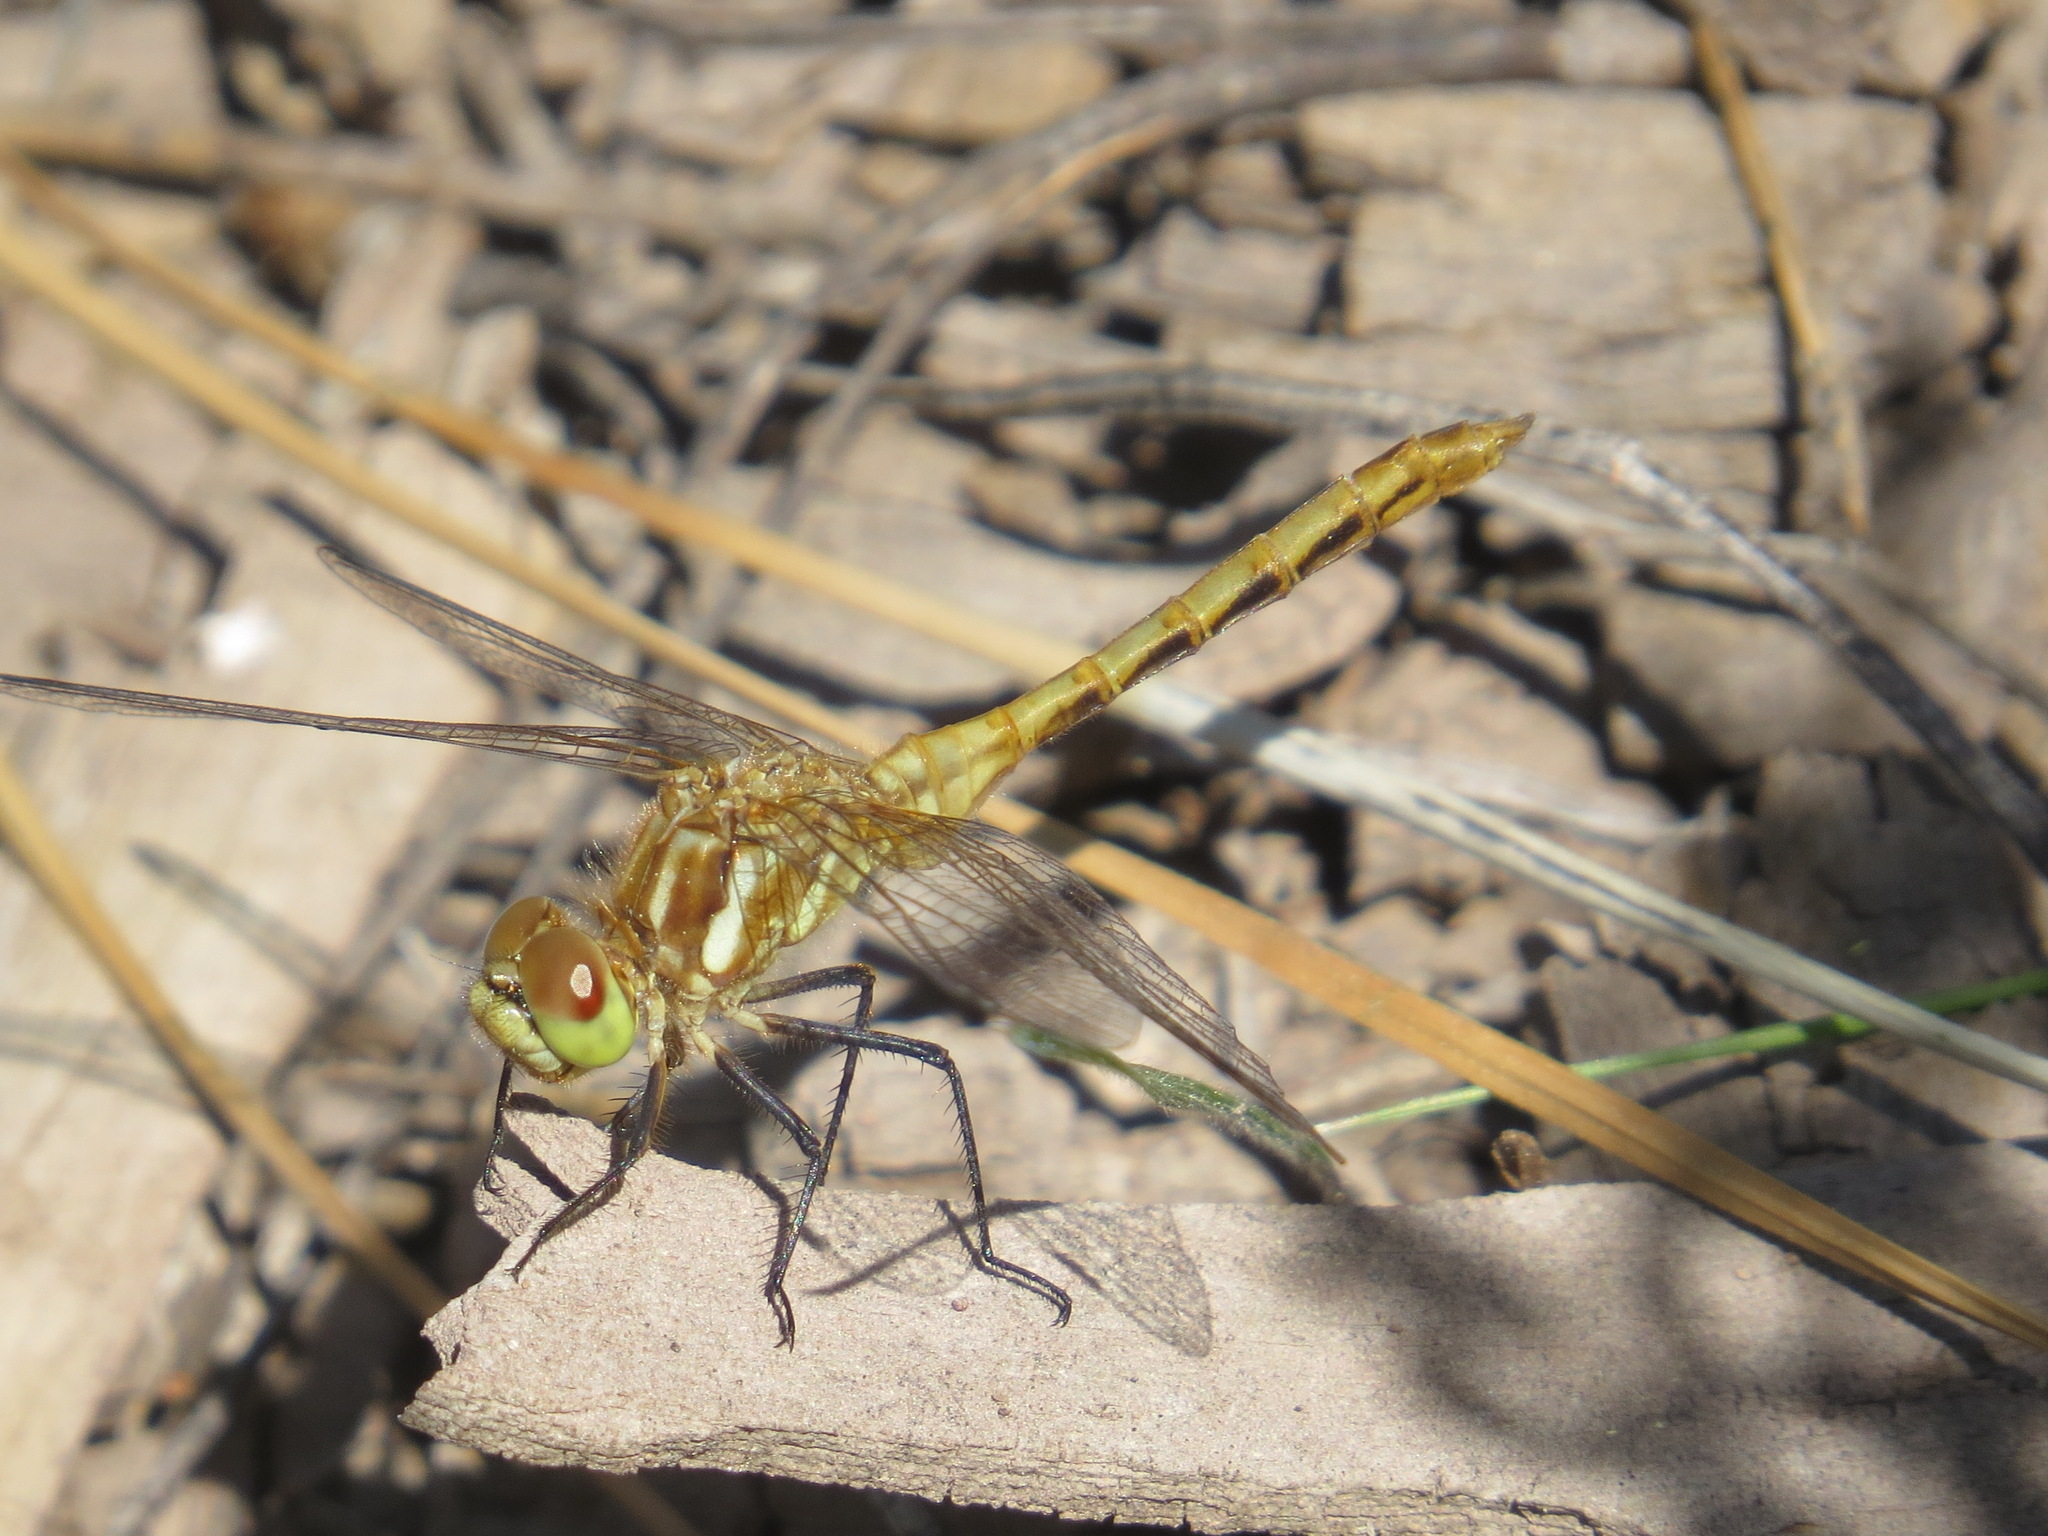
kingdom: Animalia
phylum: Arthropoda
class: Insecta
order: Odonata
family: Libellulidae
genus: Sympetrum
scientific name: Sympetrum pallipes
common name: Striped meadowhawk
